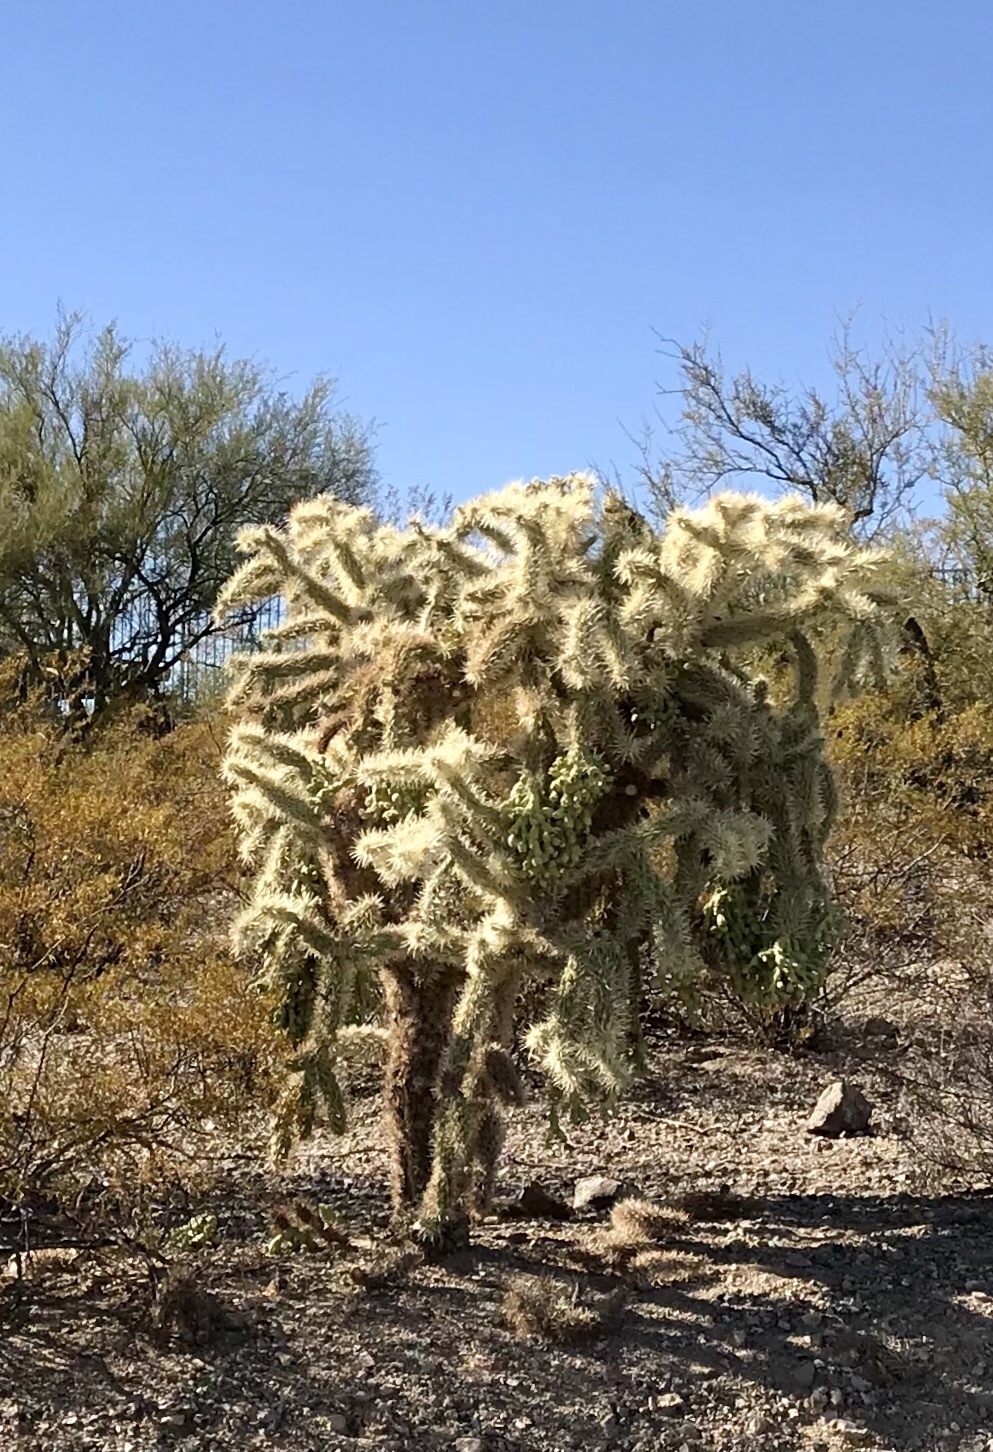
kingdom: Plantae
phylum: Tracheophyta
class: Magnoliopsida
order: Caryophyllales
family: Cactaceae
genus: Cylindropuntia
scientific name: Cylindropuntia fulgida
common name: Jumping cholla
